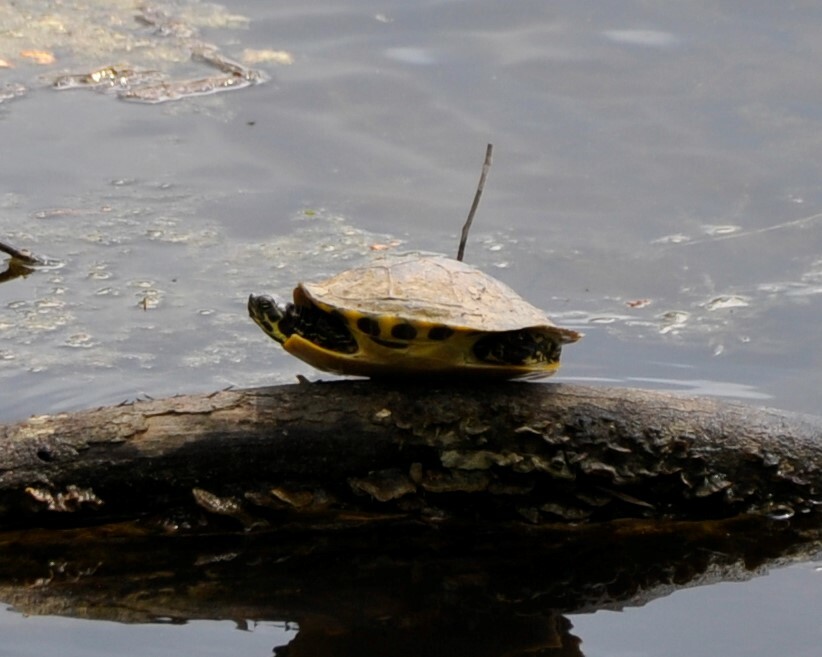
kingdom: Animalia
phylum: Chordata
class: Testudines
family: Emydidae
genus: Pseudemys
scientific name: Pseudemys concinna
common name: Eastern river cooter
